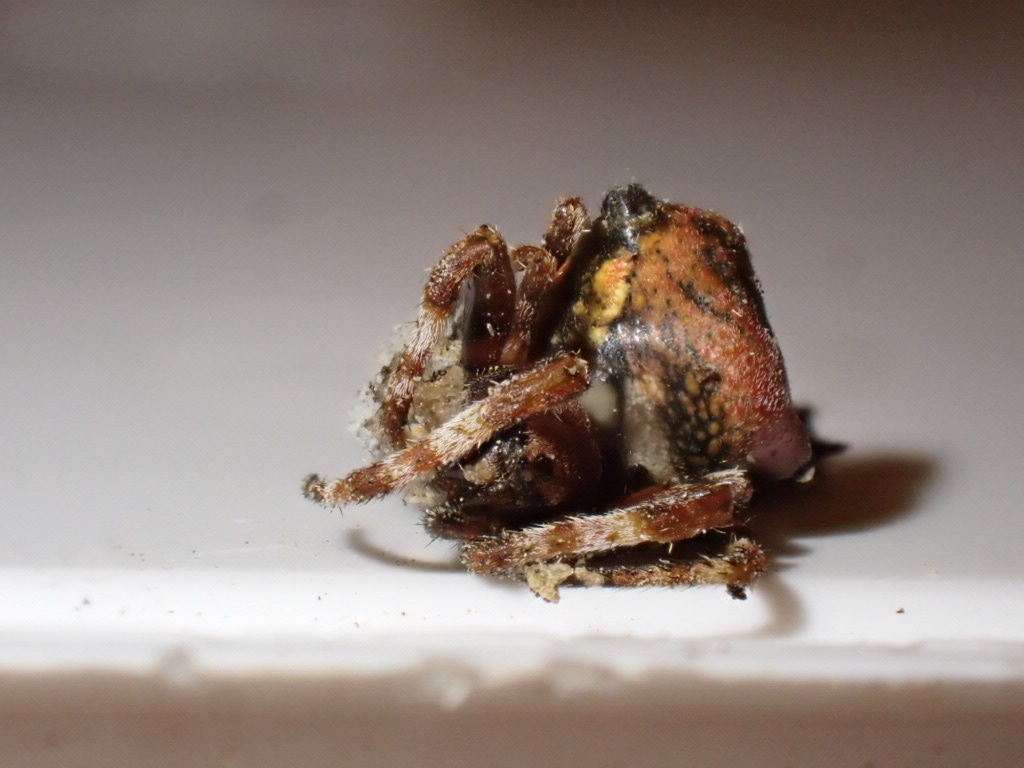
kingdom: Animalia
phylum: Arthropoda
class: Arachnida
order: Araneae
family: Araneidae
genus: Courtaraneus
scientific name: Courtaraneus orientalis
